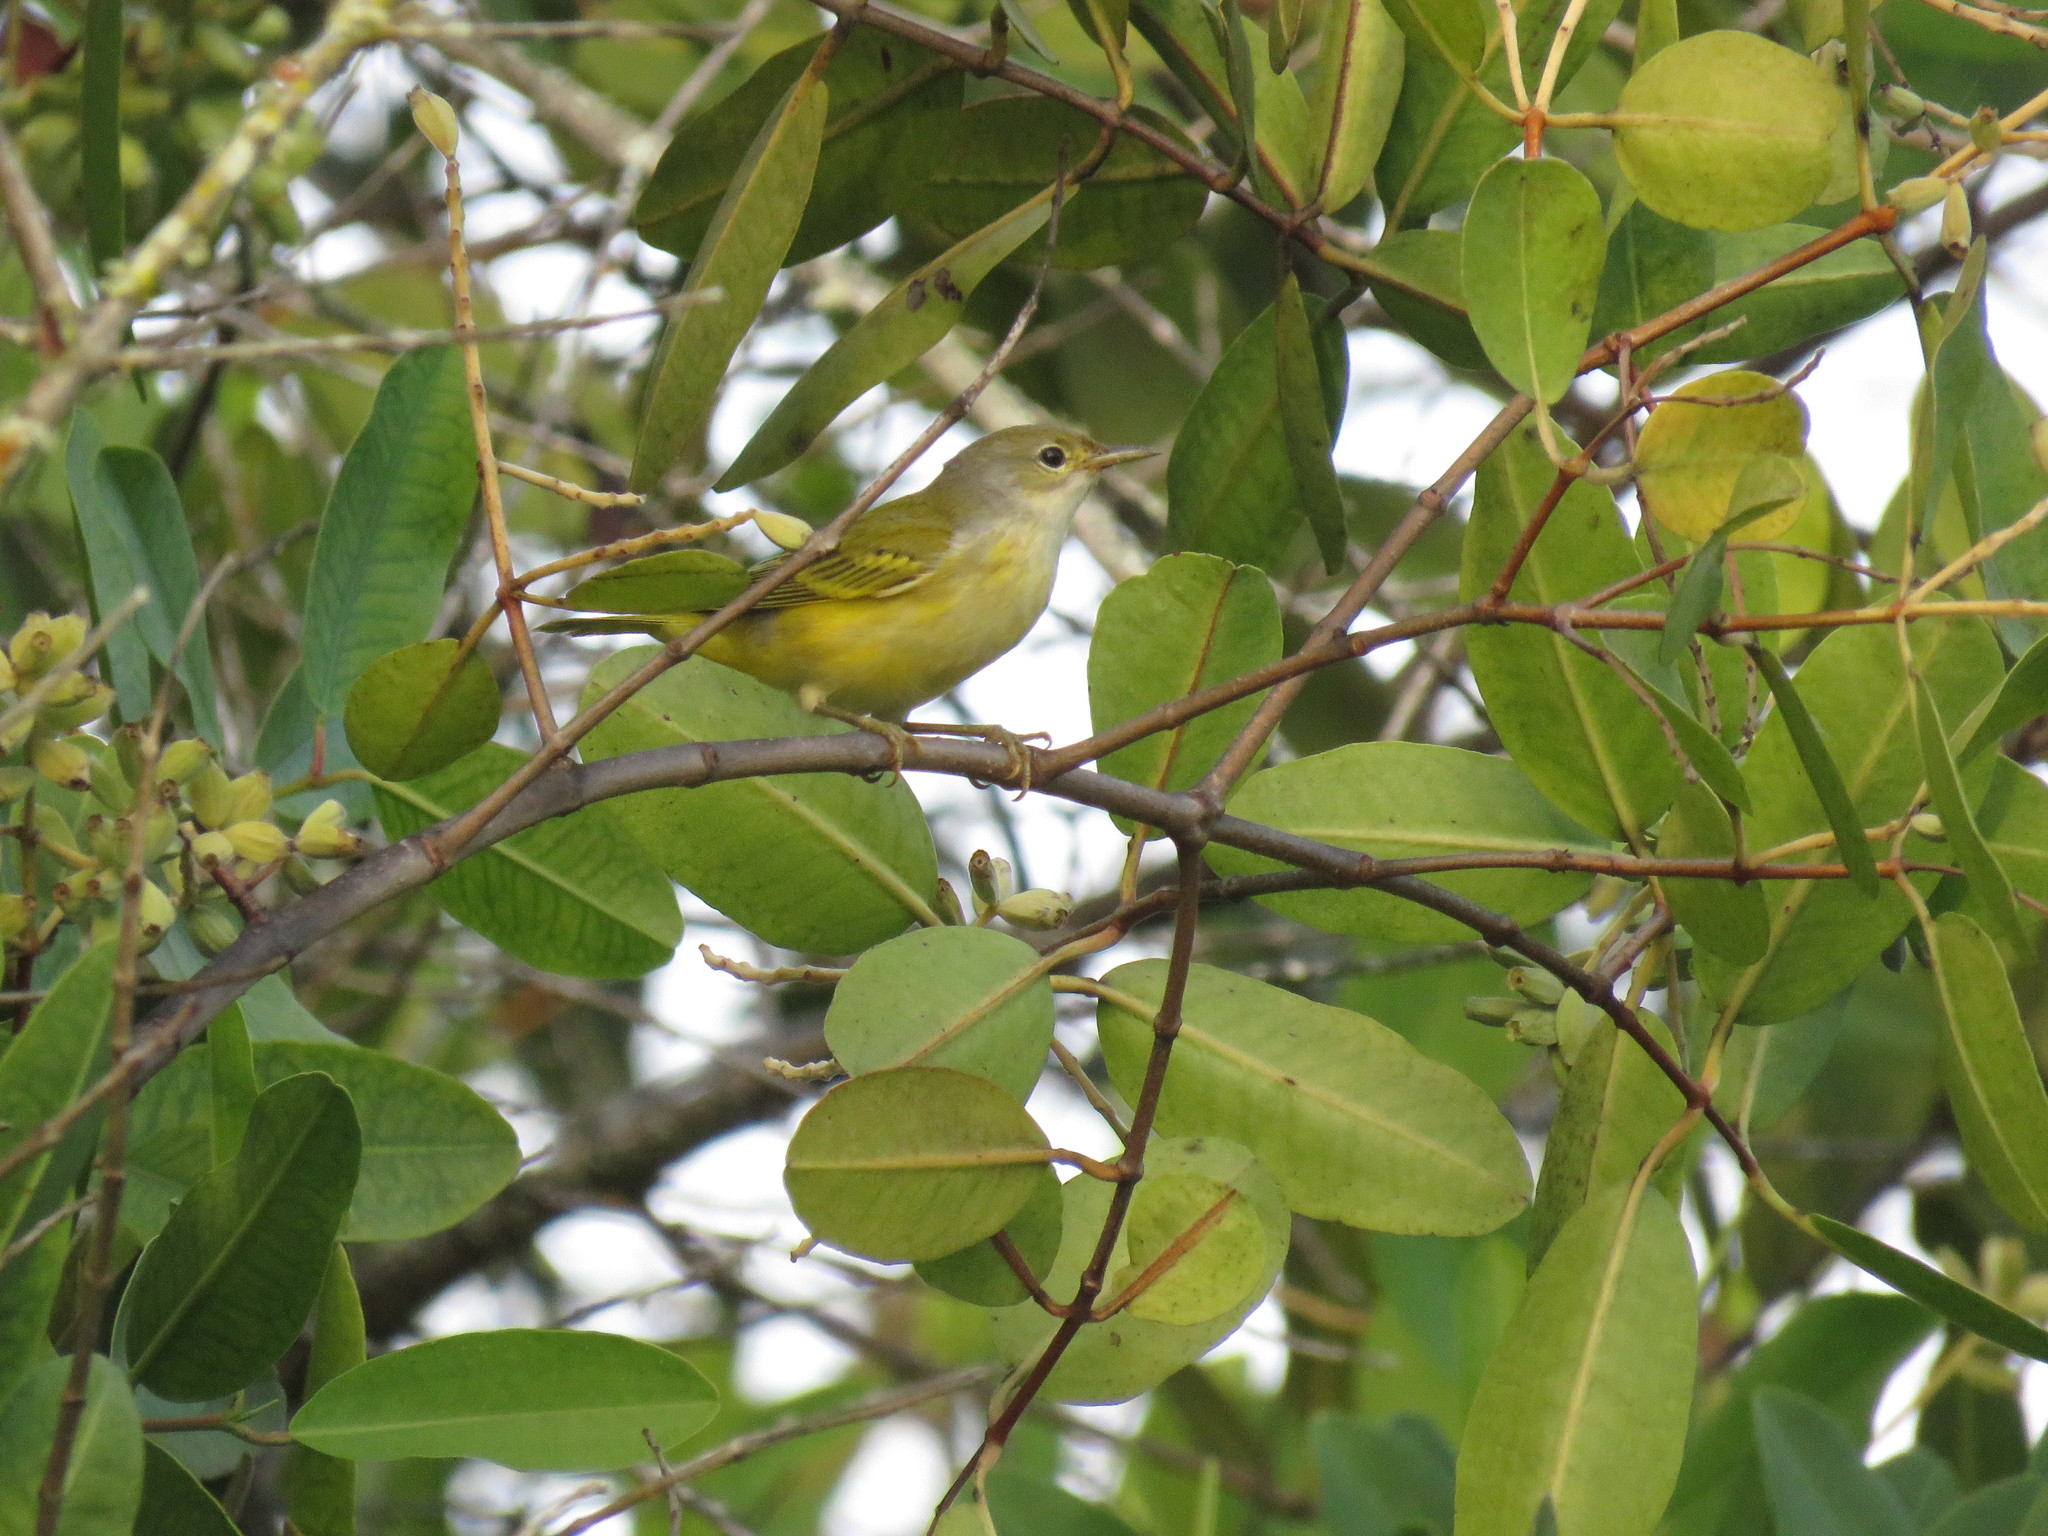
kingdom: Animalia
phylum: Chordata
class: Aves
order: Passeriformes
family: Parulidae
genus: Setophaga
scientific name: Setophaga petechia
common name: Yellow warbler
